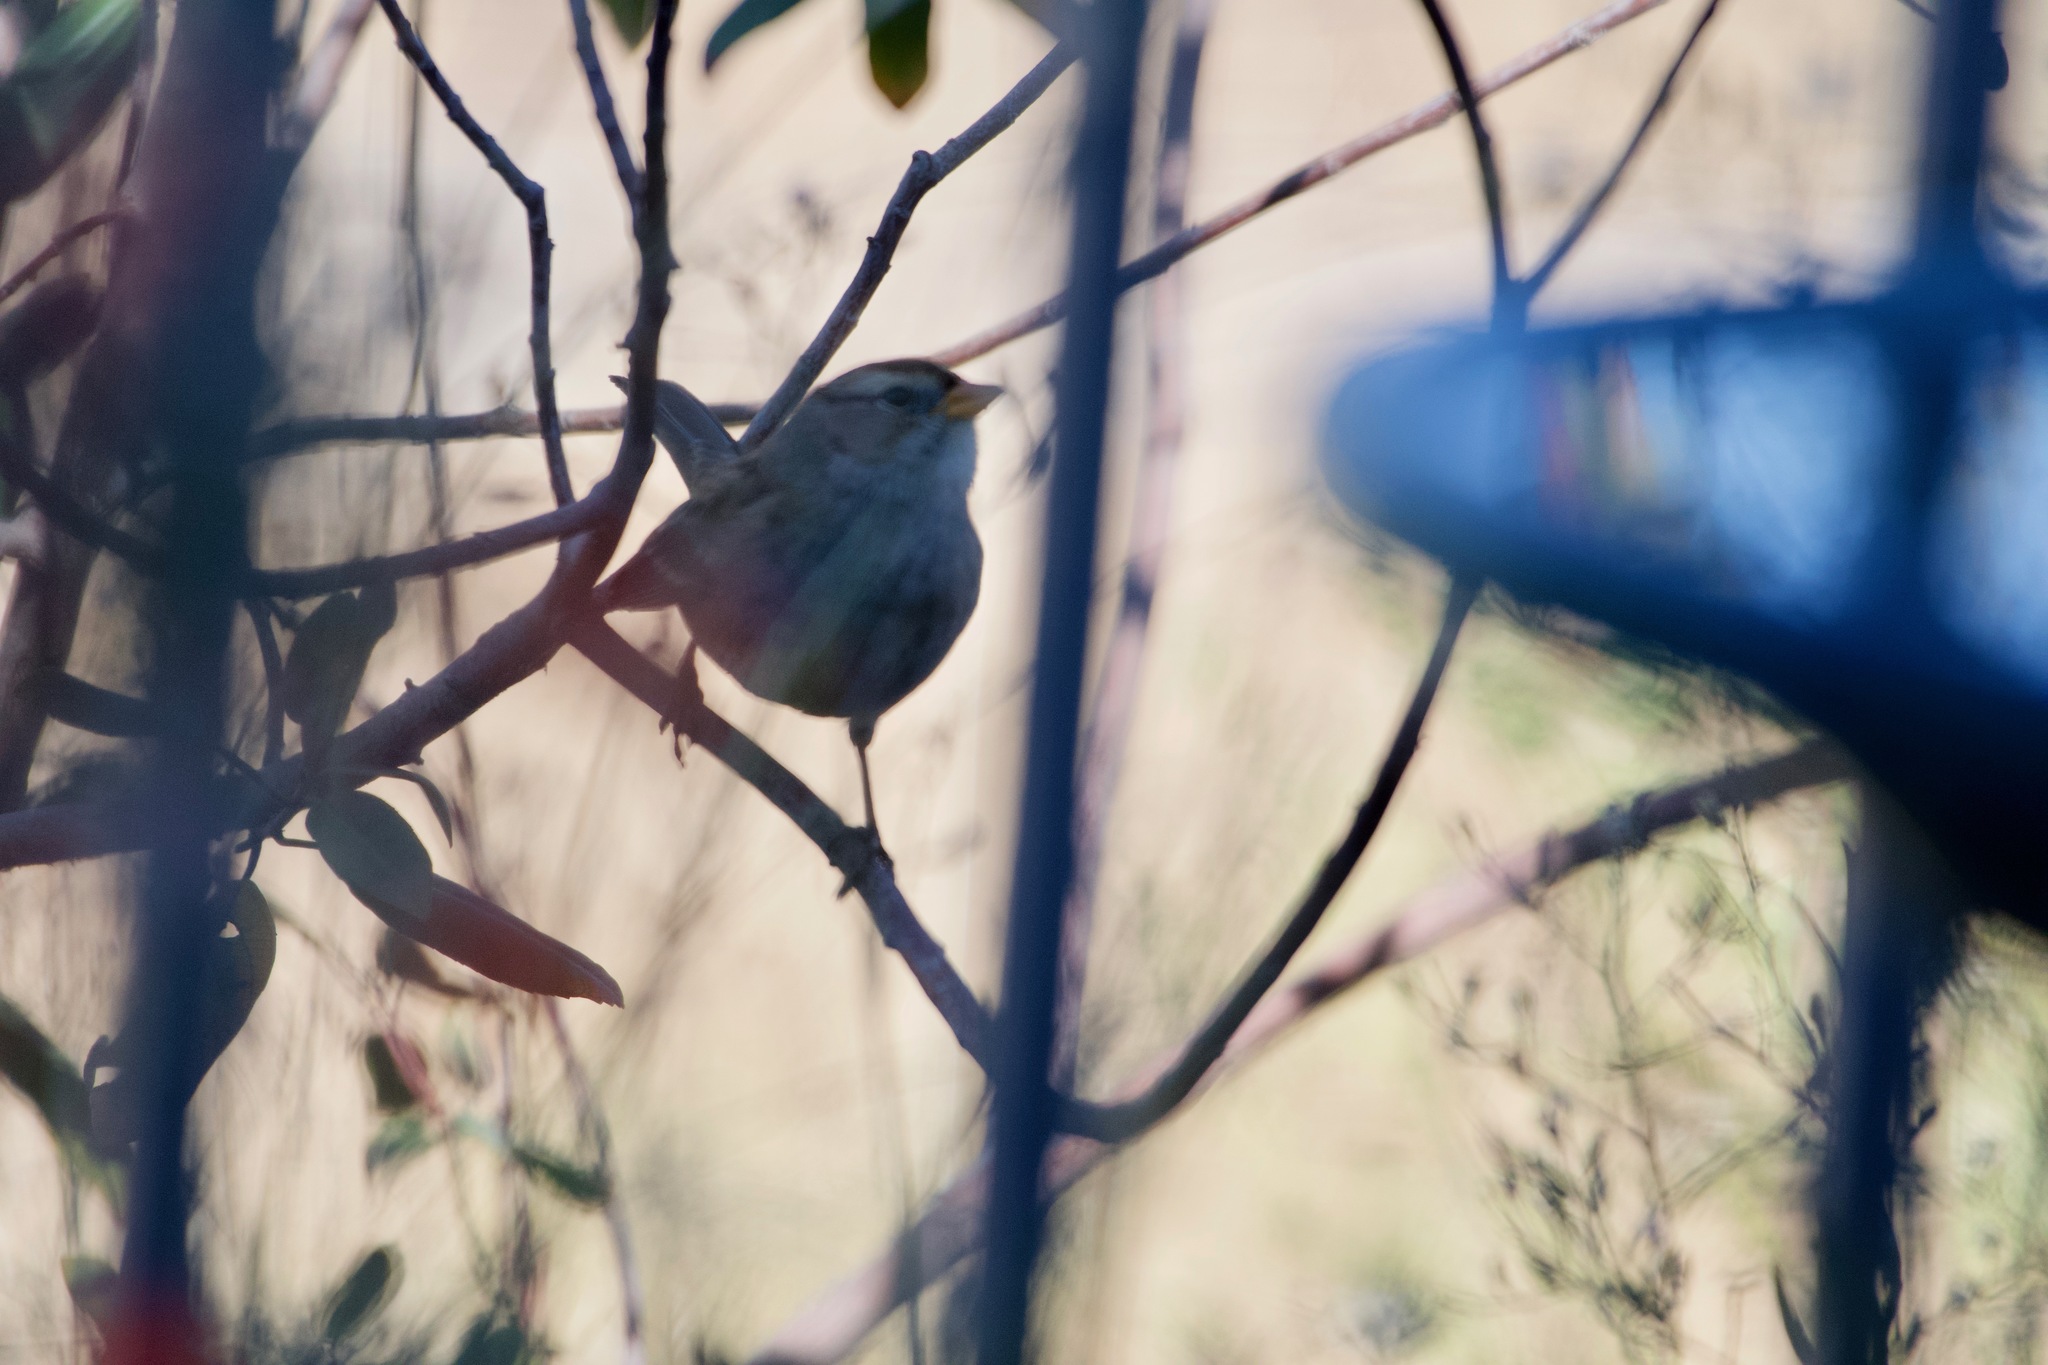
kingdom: Animalia
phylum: Chordata
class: Aves
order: Passeriformes
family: Passerellidae
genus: Zonotrichia
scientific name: Zonotrichia leucophrys
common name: White-crowned sparrow
